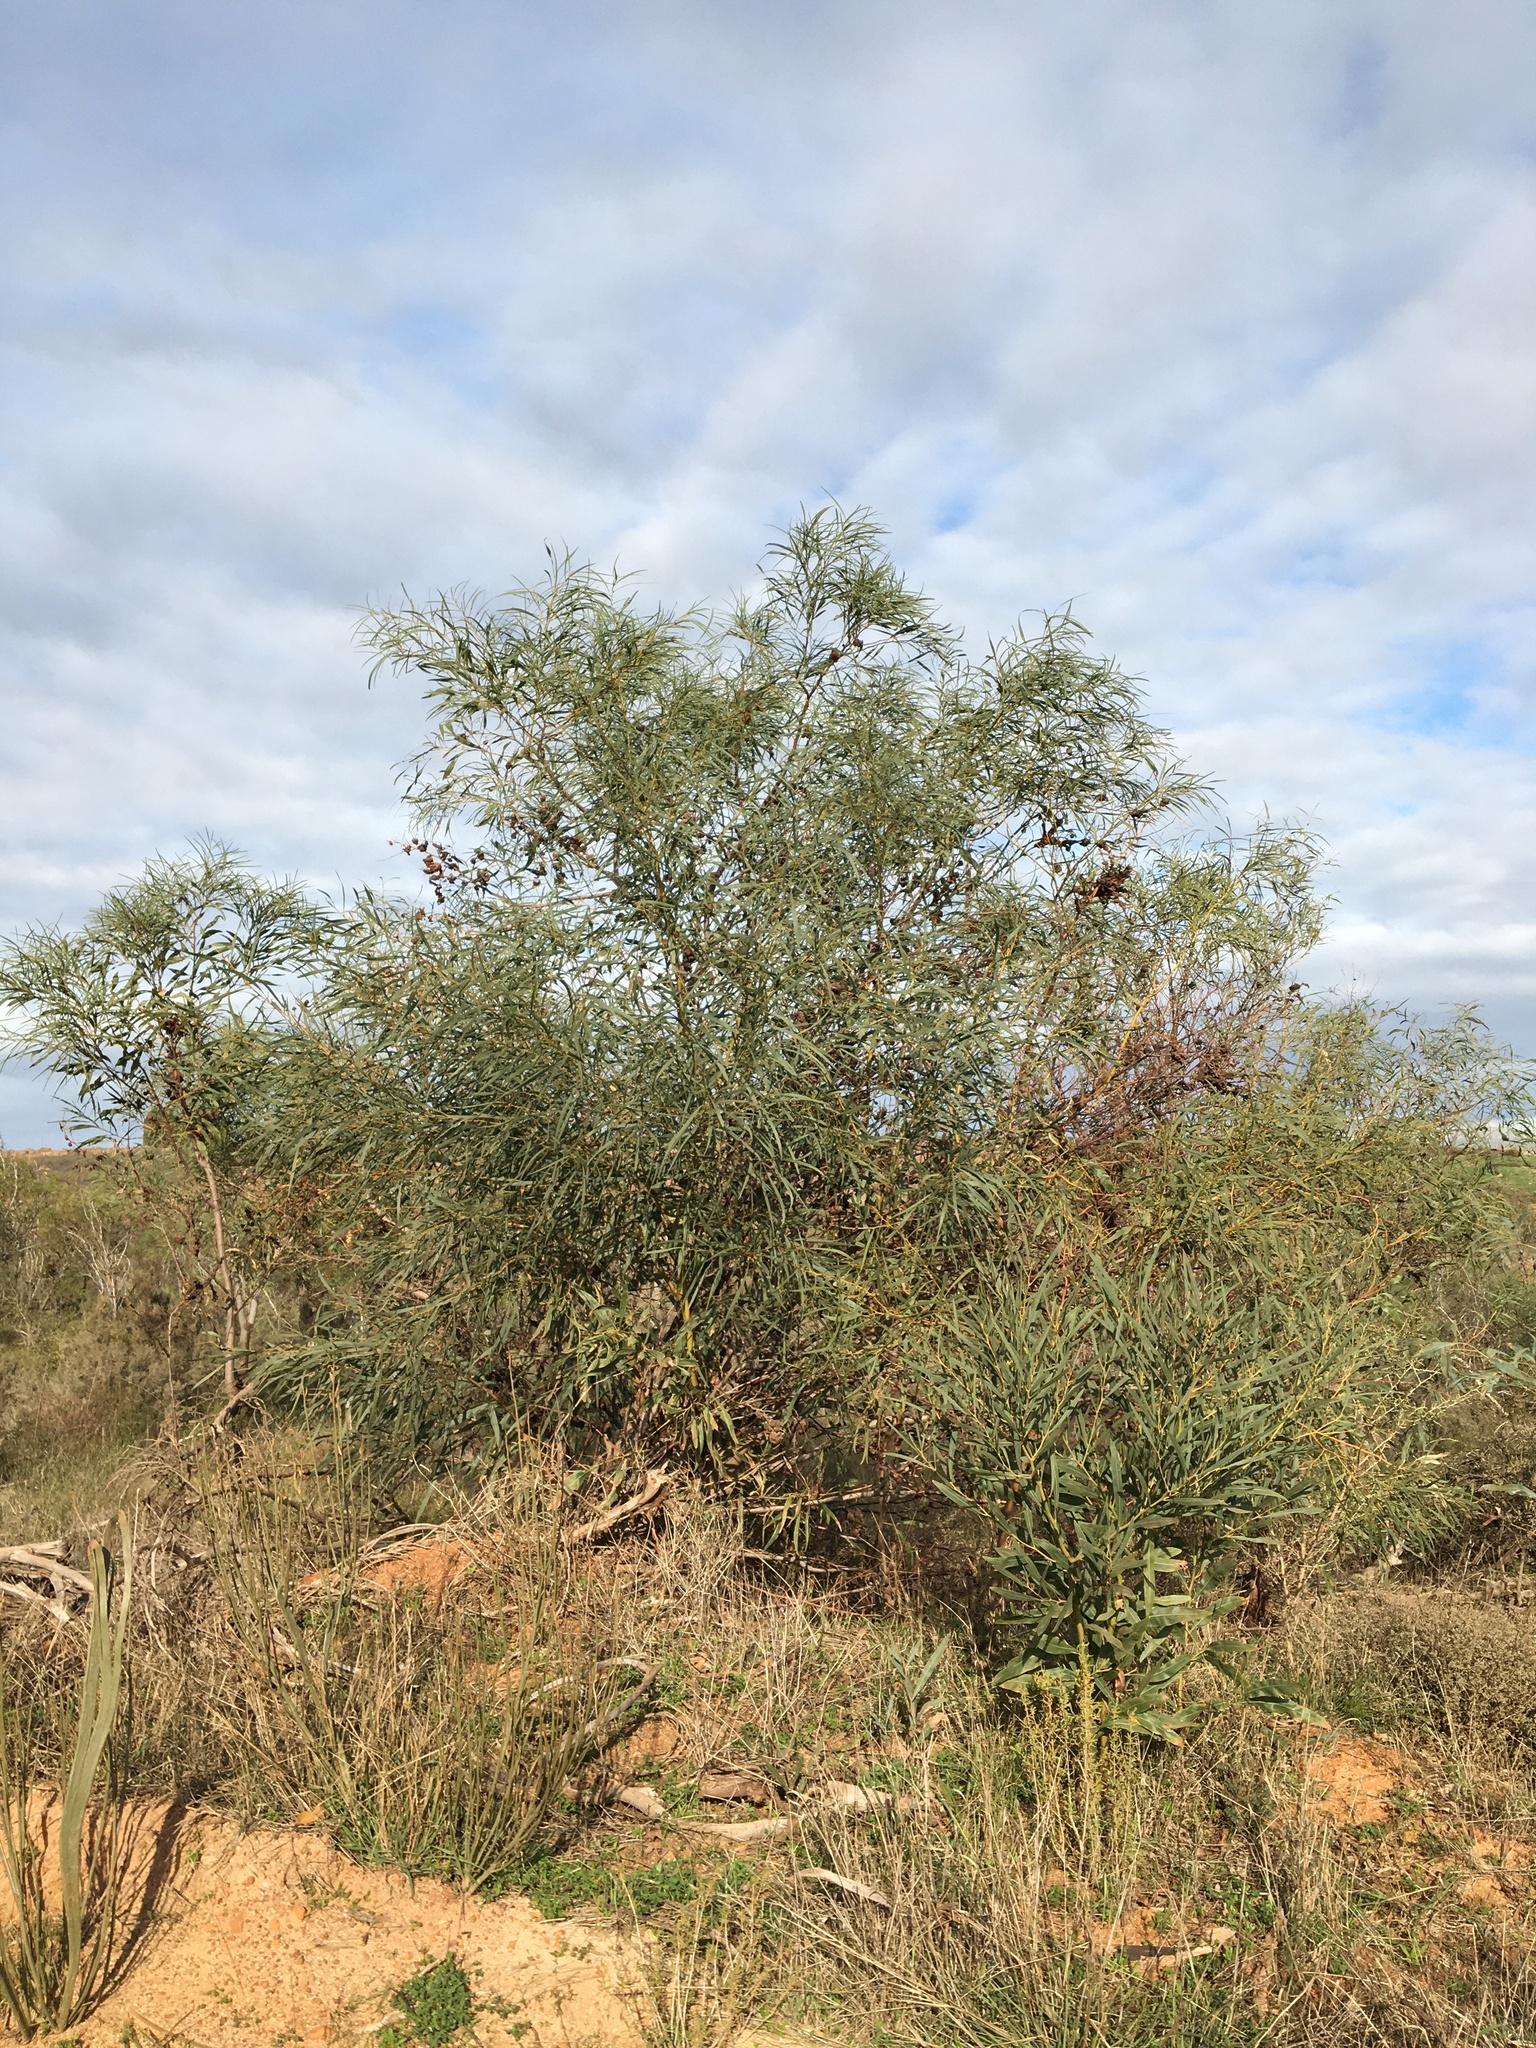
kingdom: Plantae
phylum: Tracheophyta
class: Magnoliopsida
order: Fabales
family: Fabaceae
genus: Acacia
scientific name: Acacia saligna
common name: Orange wattle
